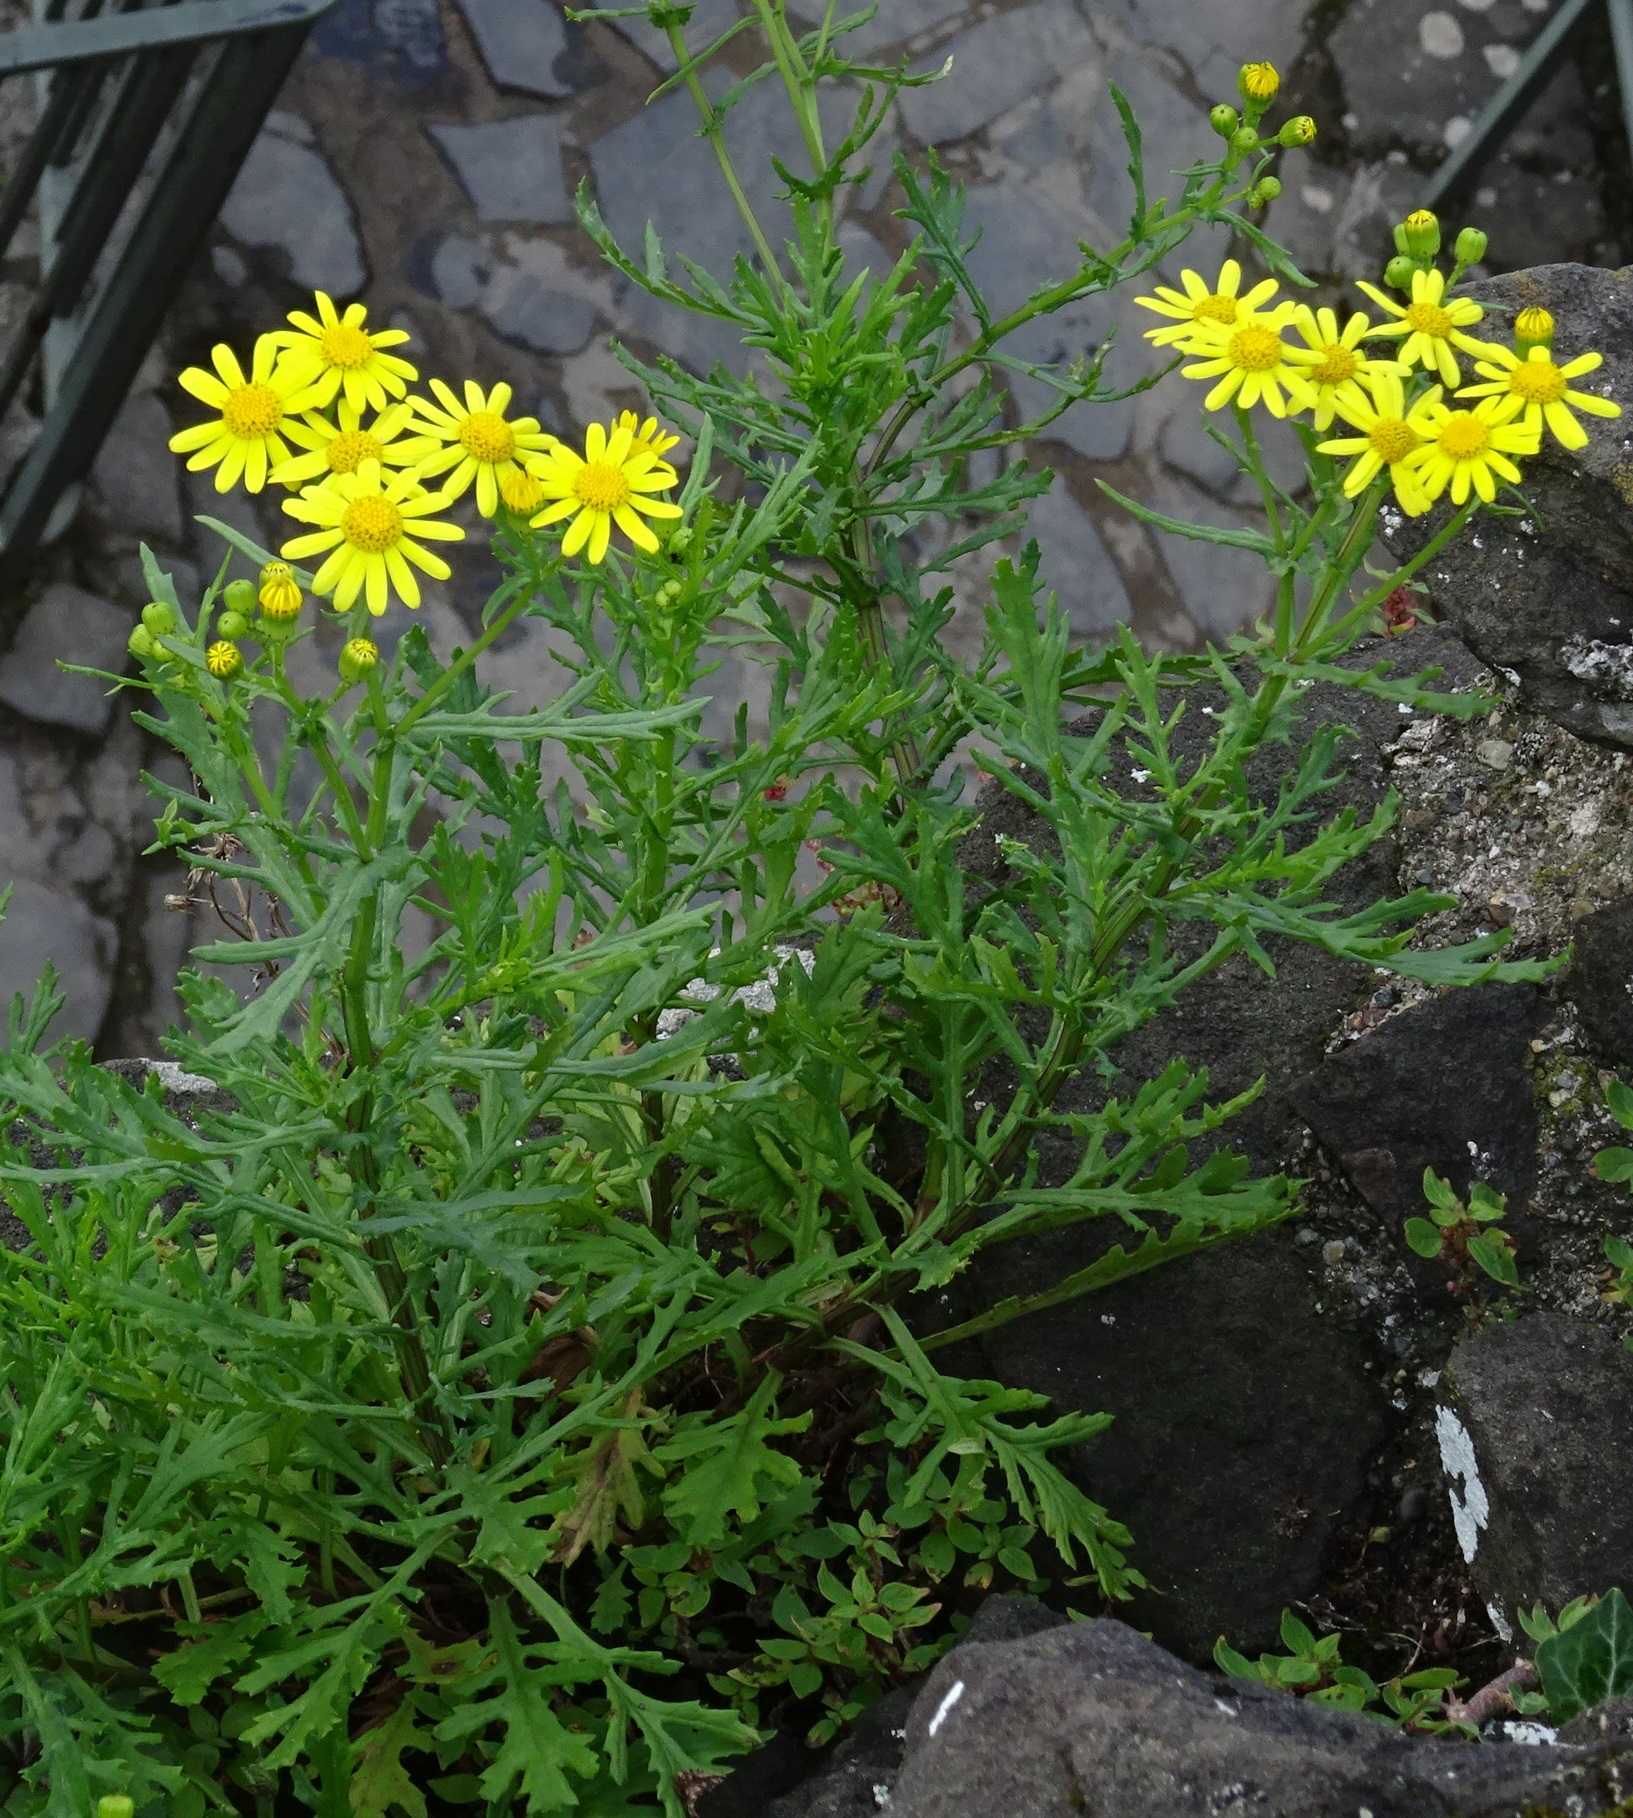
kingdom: Plantae
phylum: Tracheophyta
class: Magnoliopsida
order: Asterales
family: Asteraceae
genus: Senecio
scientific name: Senecio squalidus
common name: Oxford ragwort
